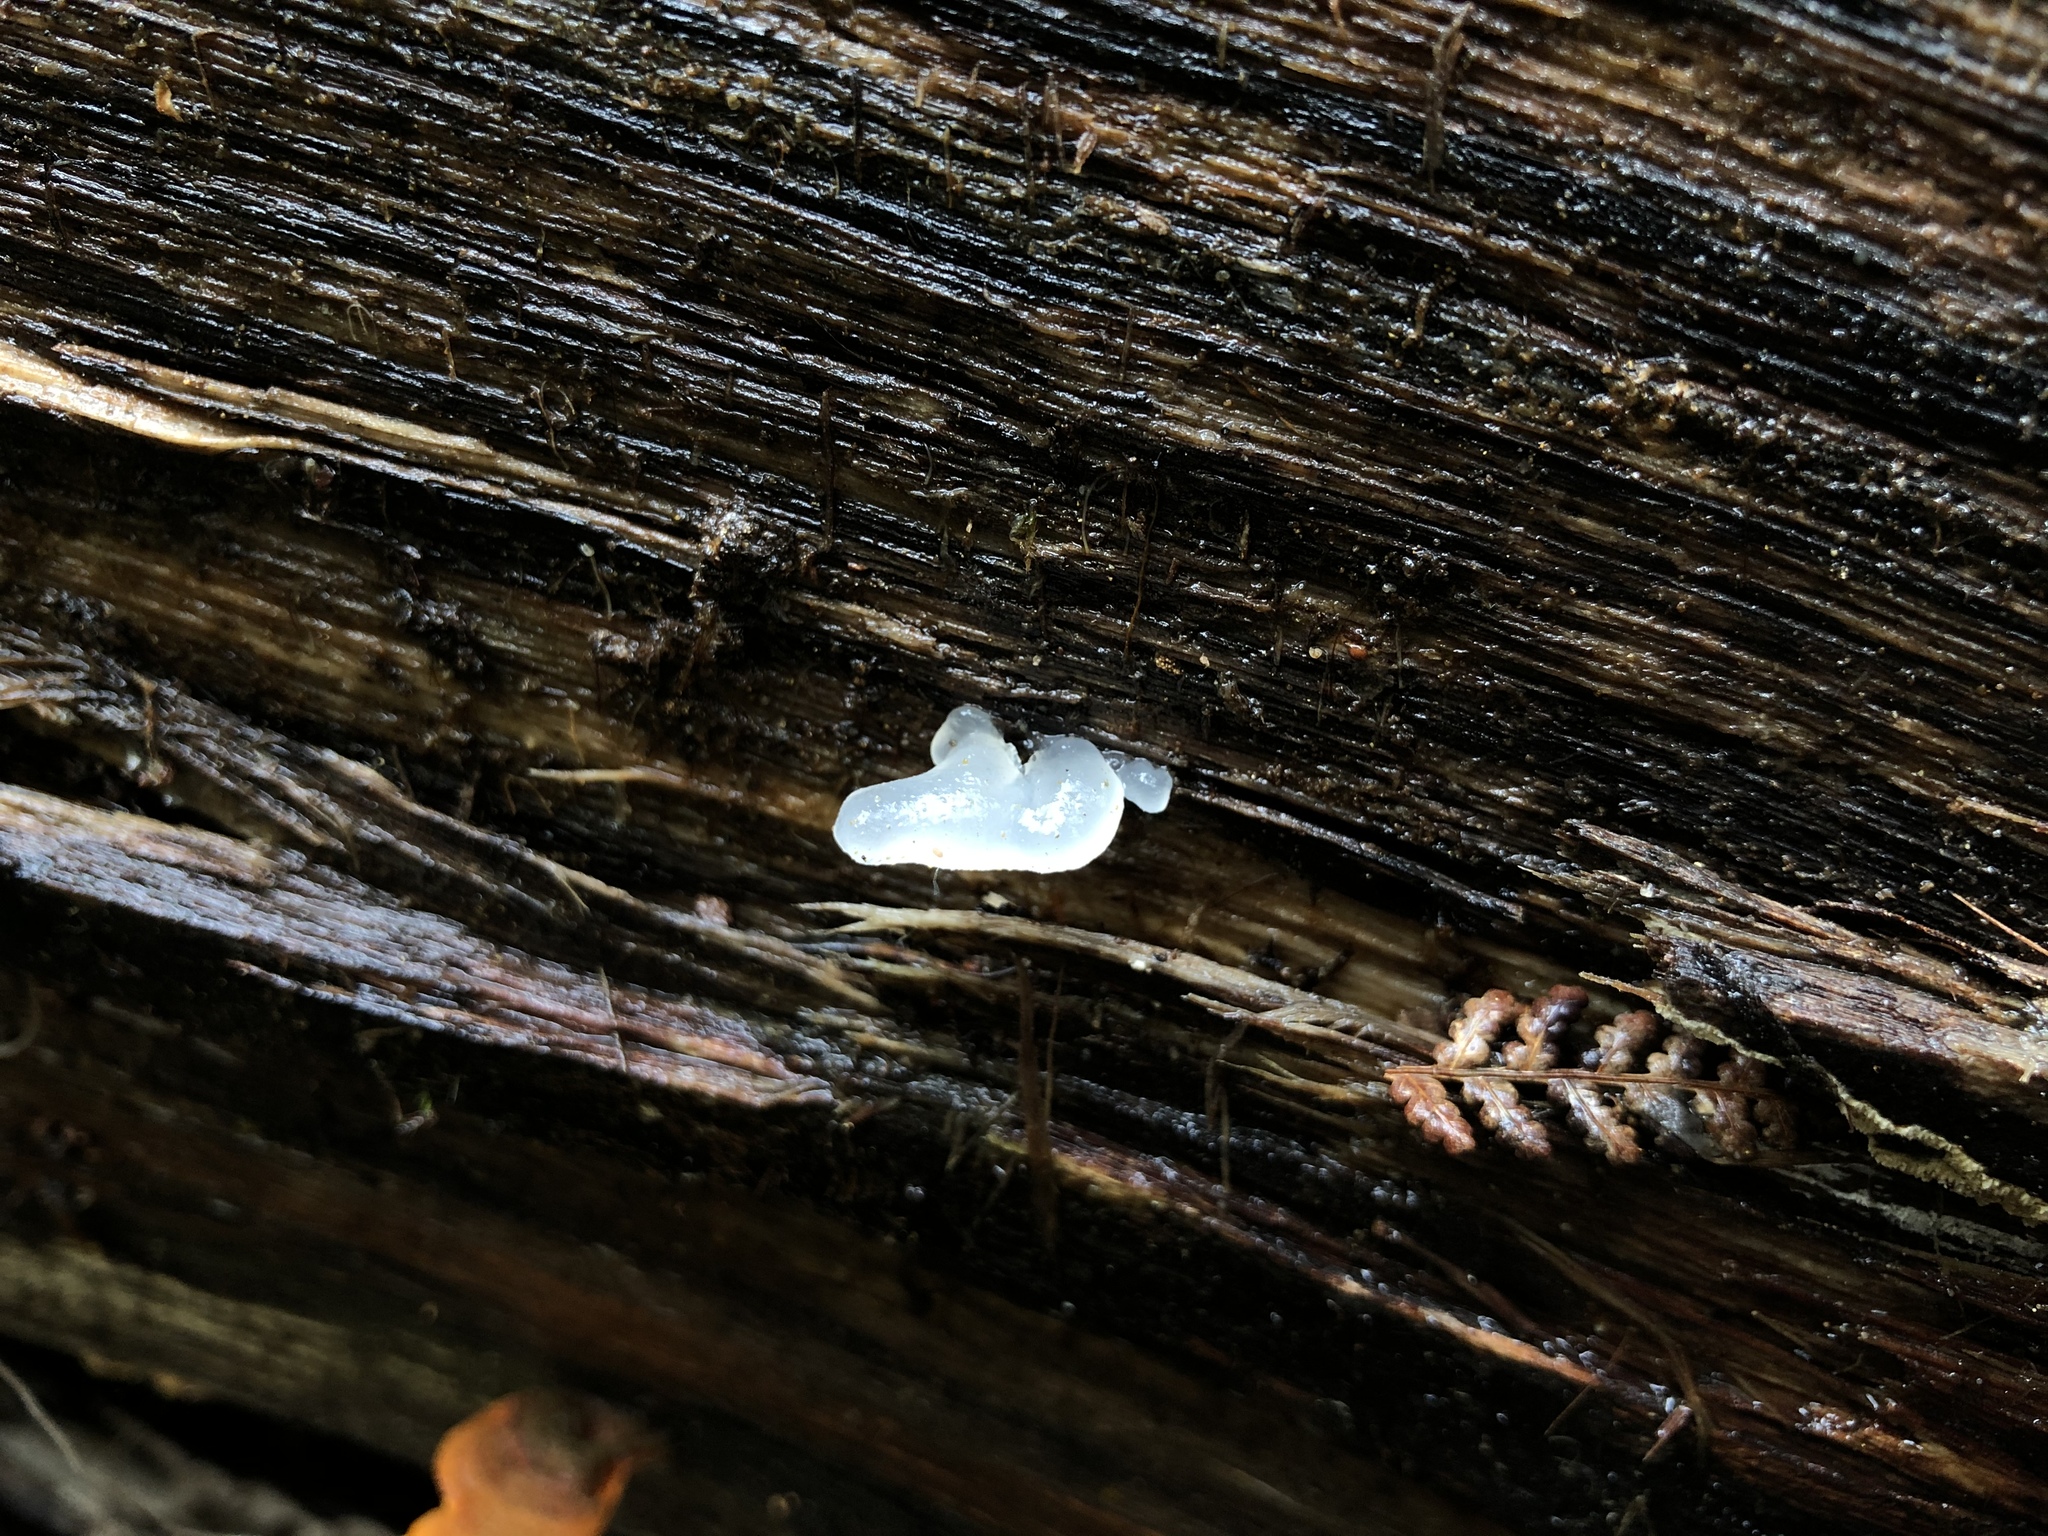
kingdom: Fungi
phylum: Basidiomycota
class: Tremellomycetes
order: Tremellales
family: Tremellaceae
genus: Tremella
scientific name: Tremella fuciformis
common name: Snow fungus
